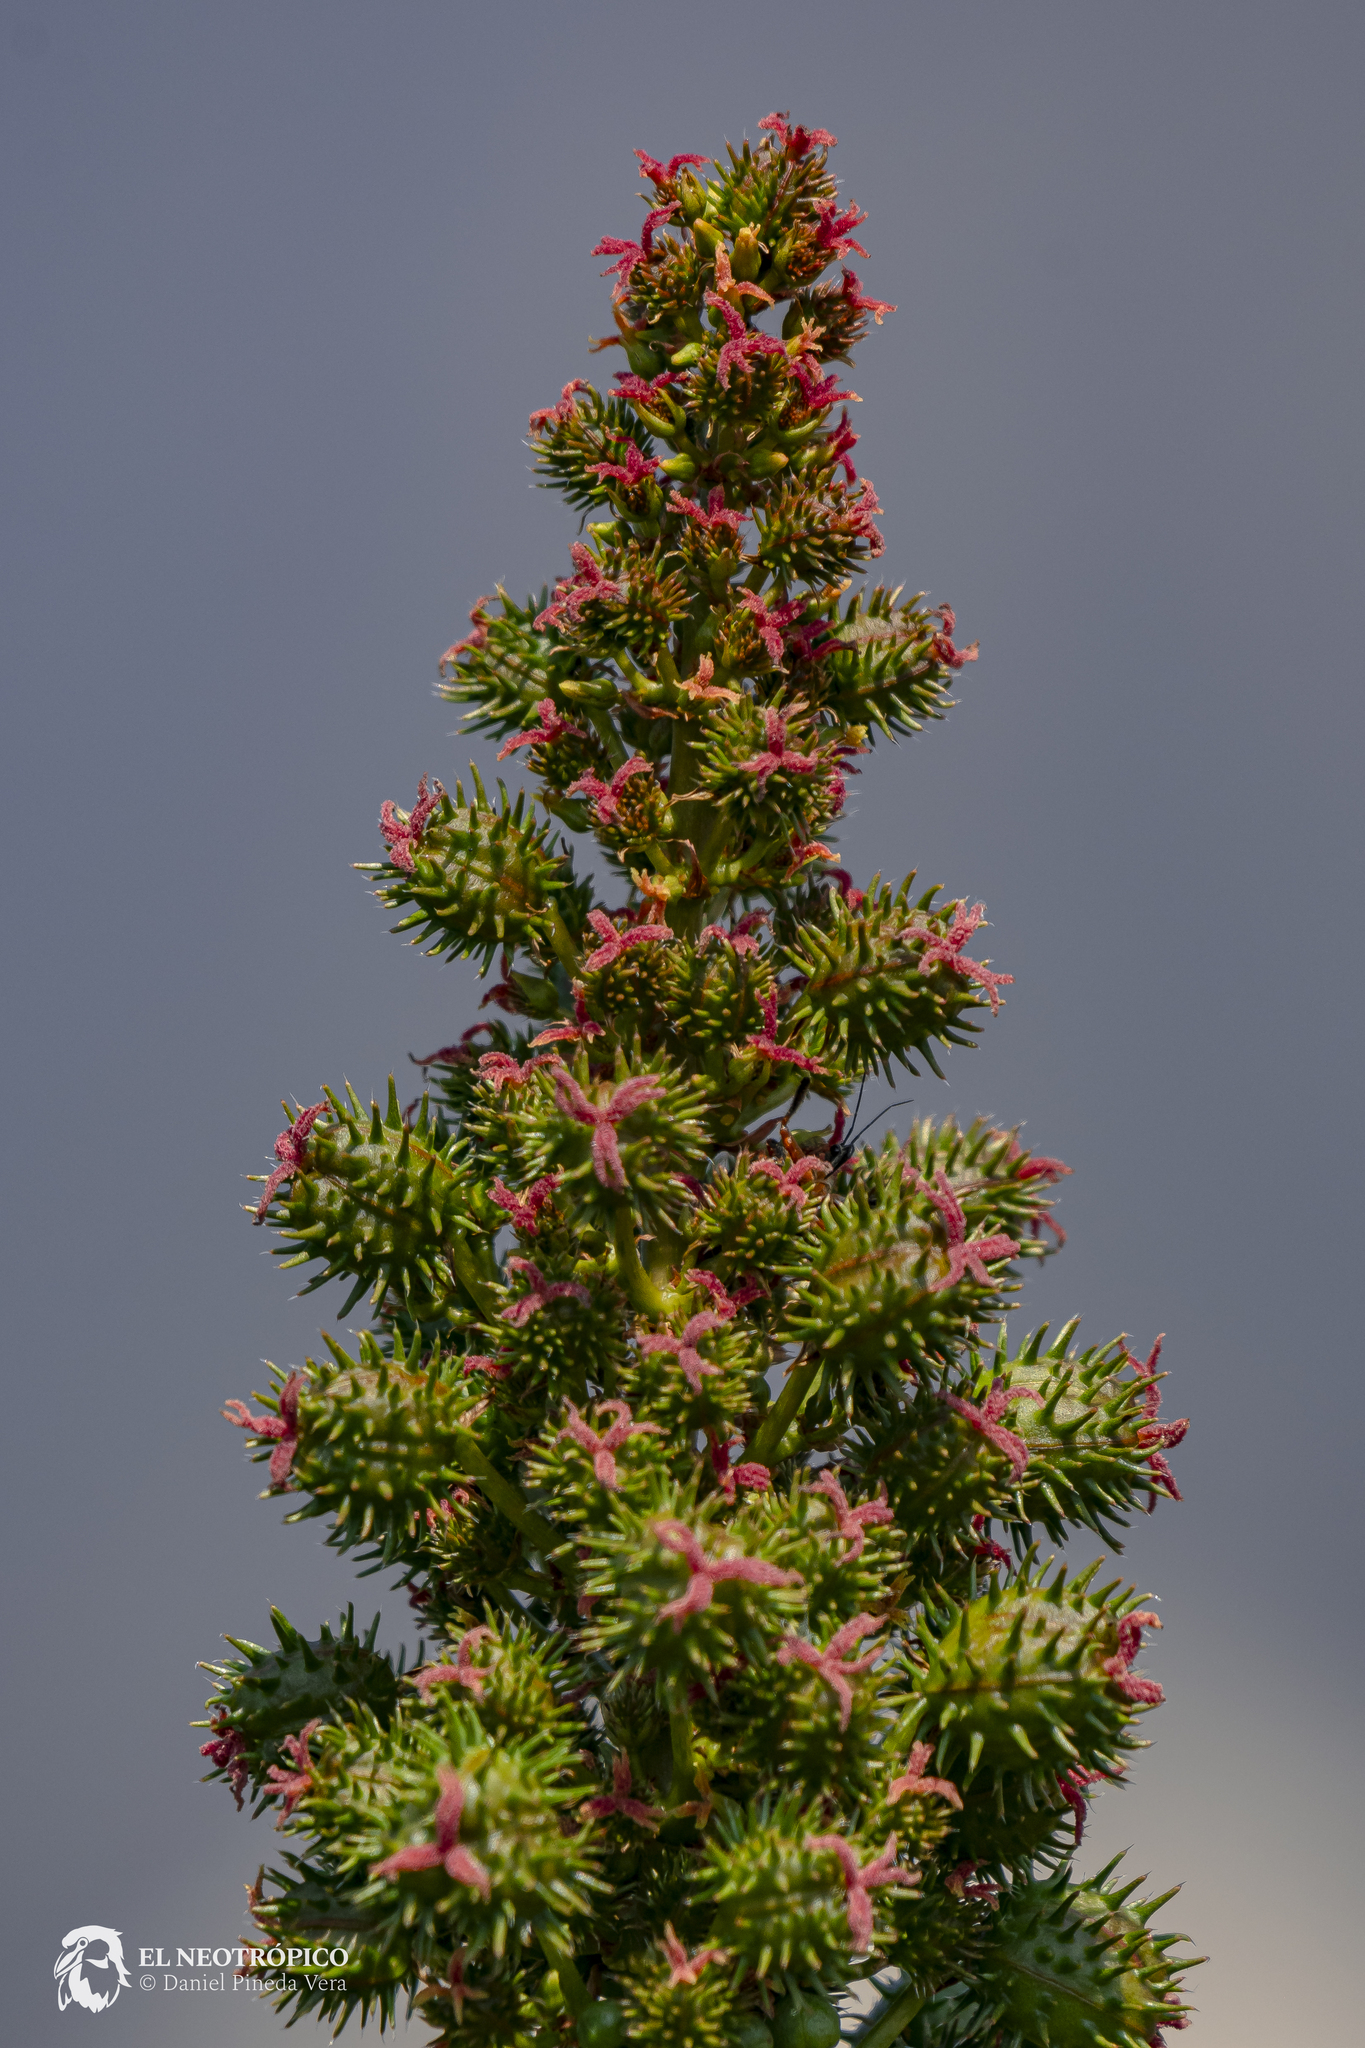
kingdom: Plantae
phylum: Tracheophyta
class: Magnoliopsida
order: Malpighiales
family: Euphorbiaceae
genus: Ricinus
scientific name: Ricinus communis
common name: Castor-oil-plant
